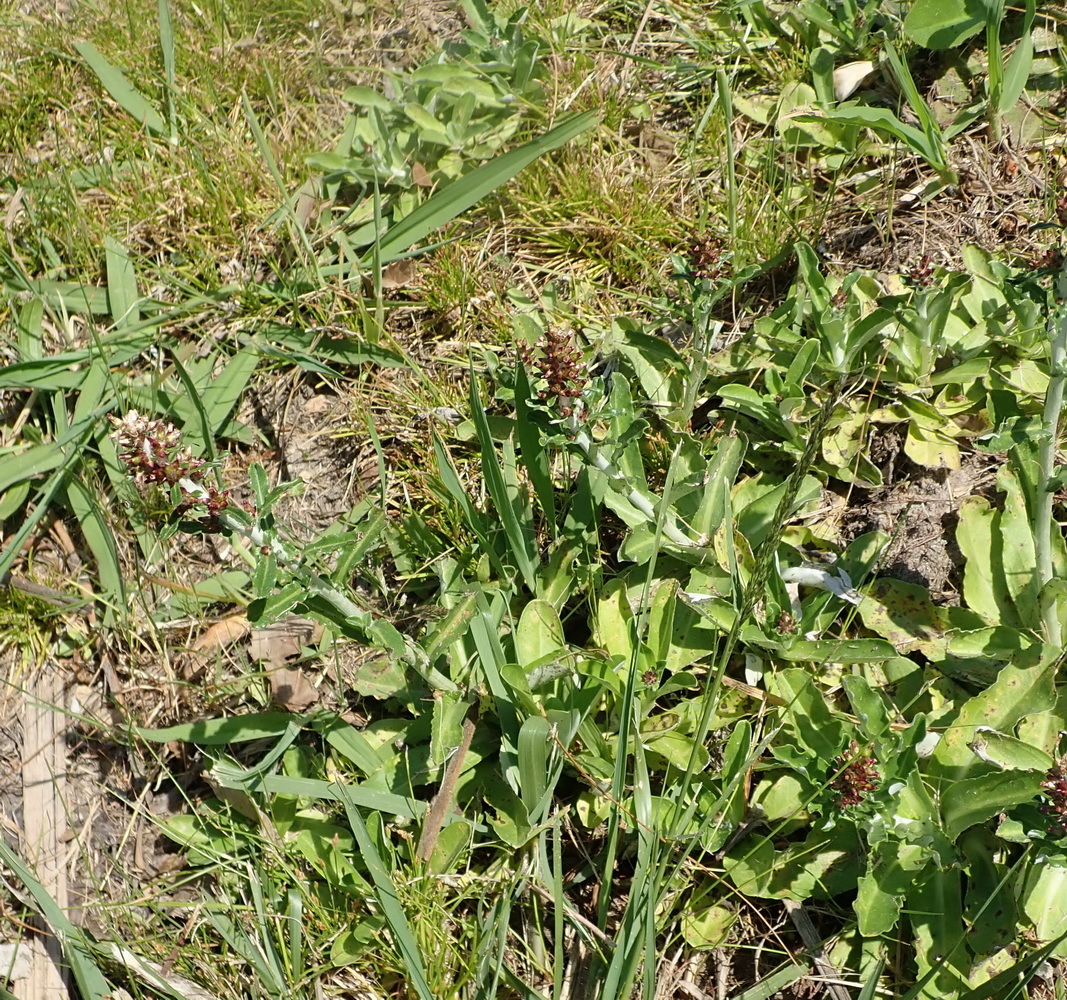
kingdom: Plantae
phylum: Tracheophyta
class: Magnoliopsida
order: Asterales
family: Asteraceae
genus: Gamochaeta
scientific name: Gamochaeta americana
